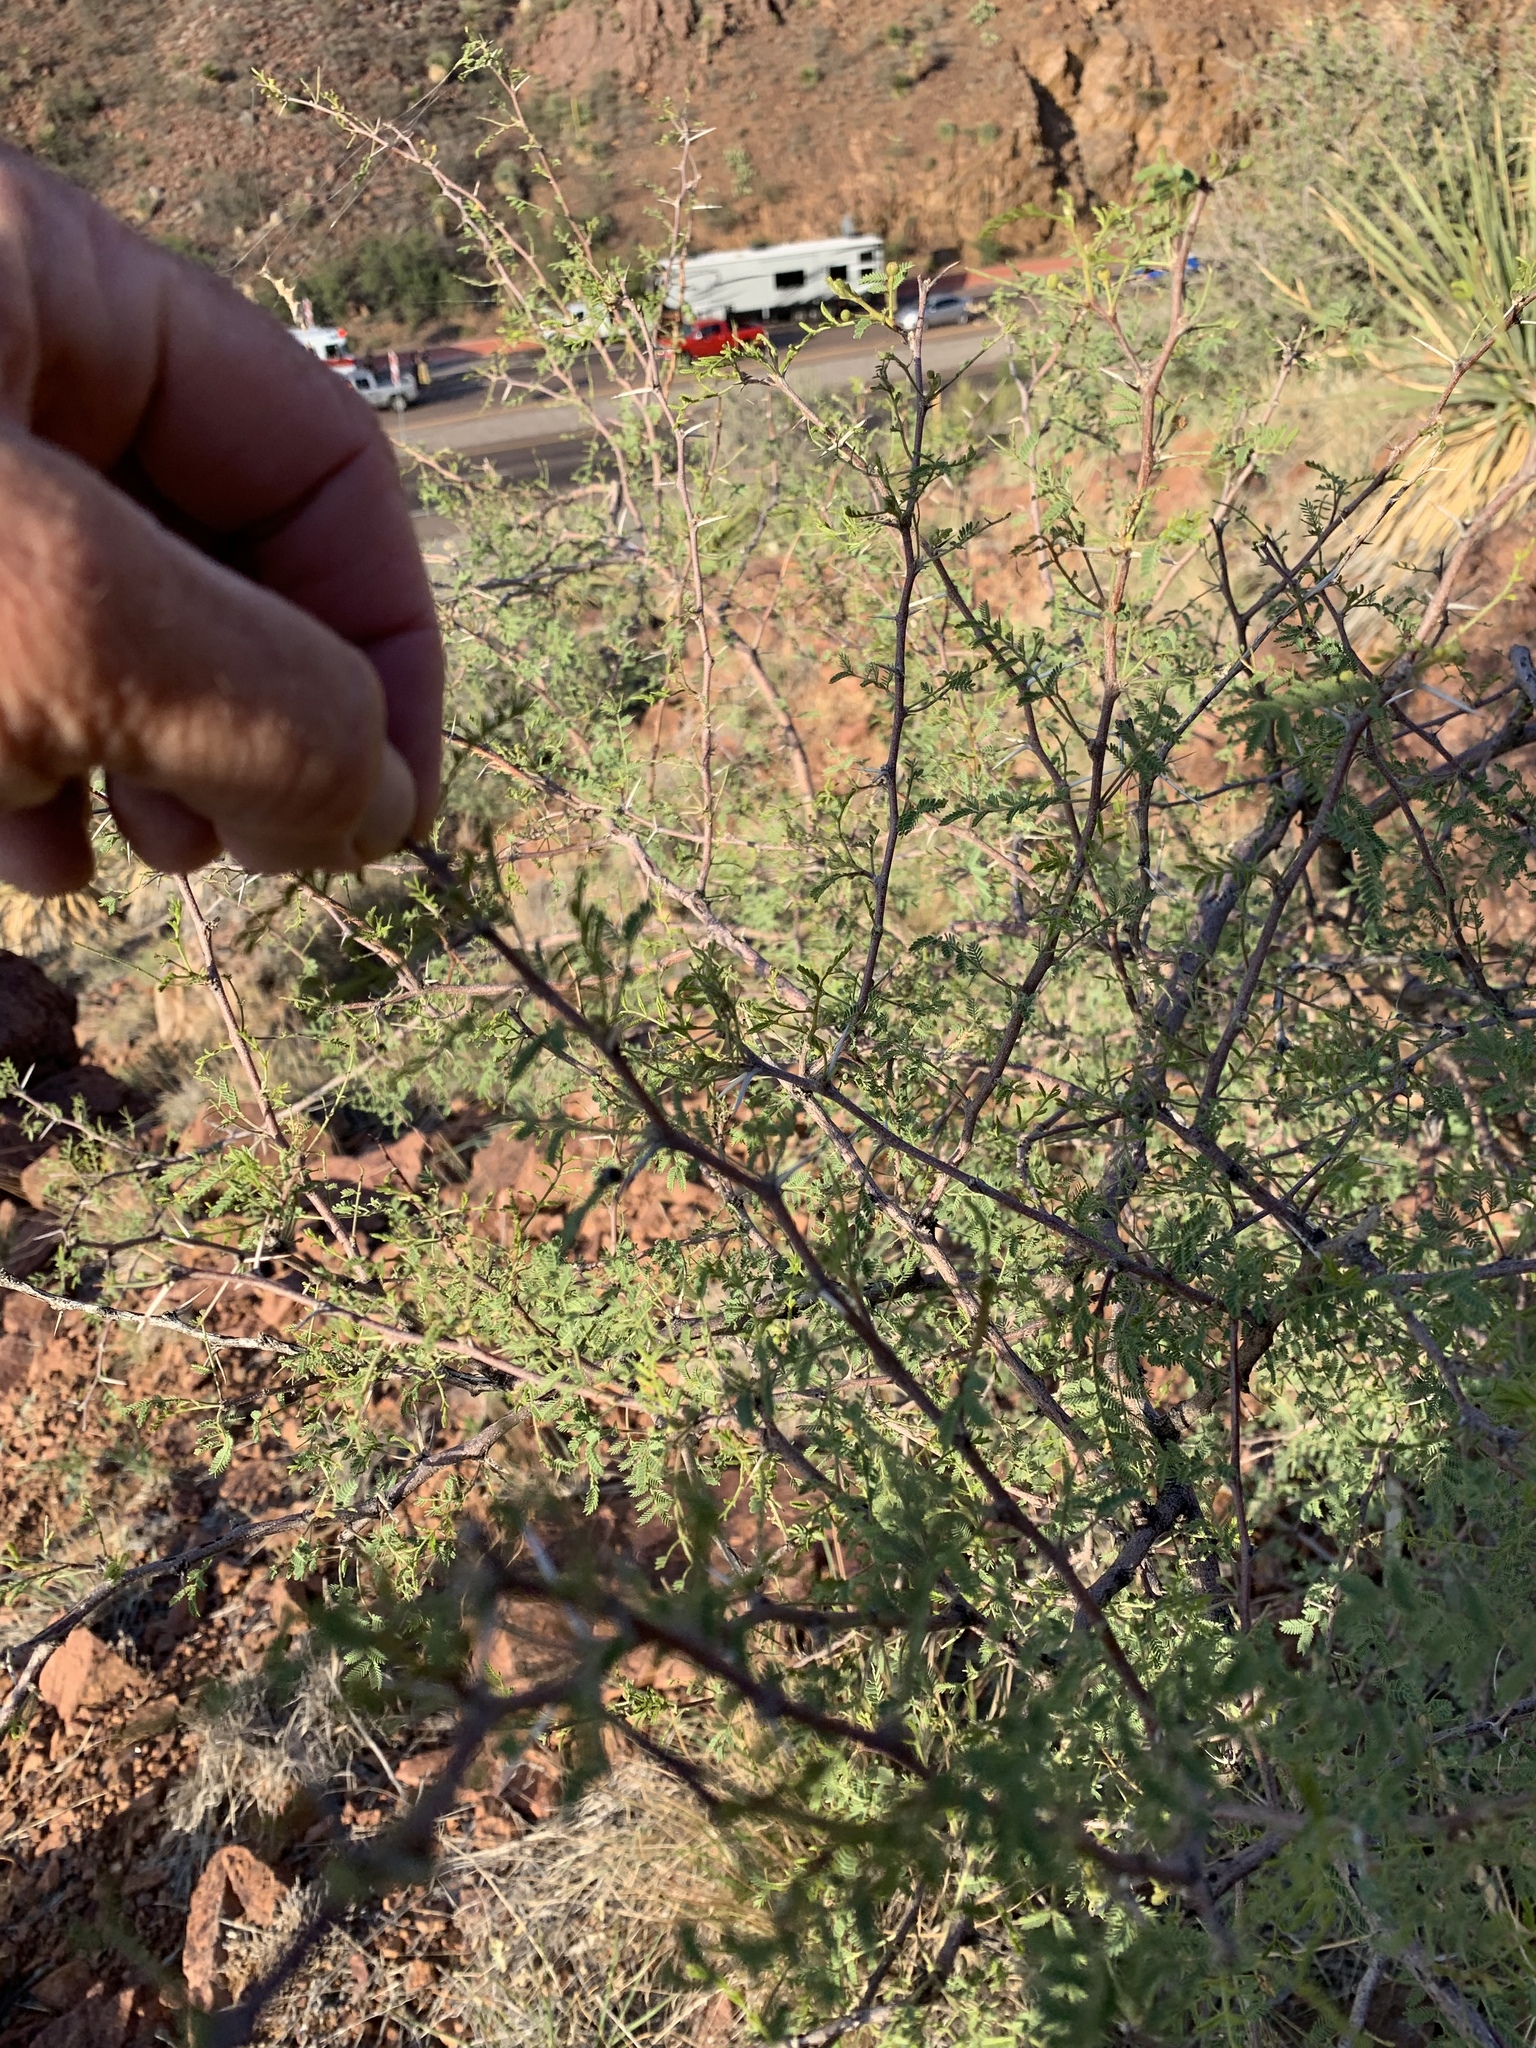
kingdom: Plantae
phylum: Tracheophyta
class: Magnoliopsida
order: Fabales
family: Fabaceae
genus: Vachellia
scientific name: Vachellia constricta
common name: Mescat acacia
